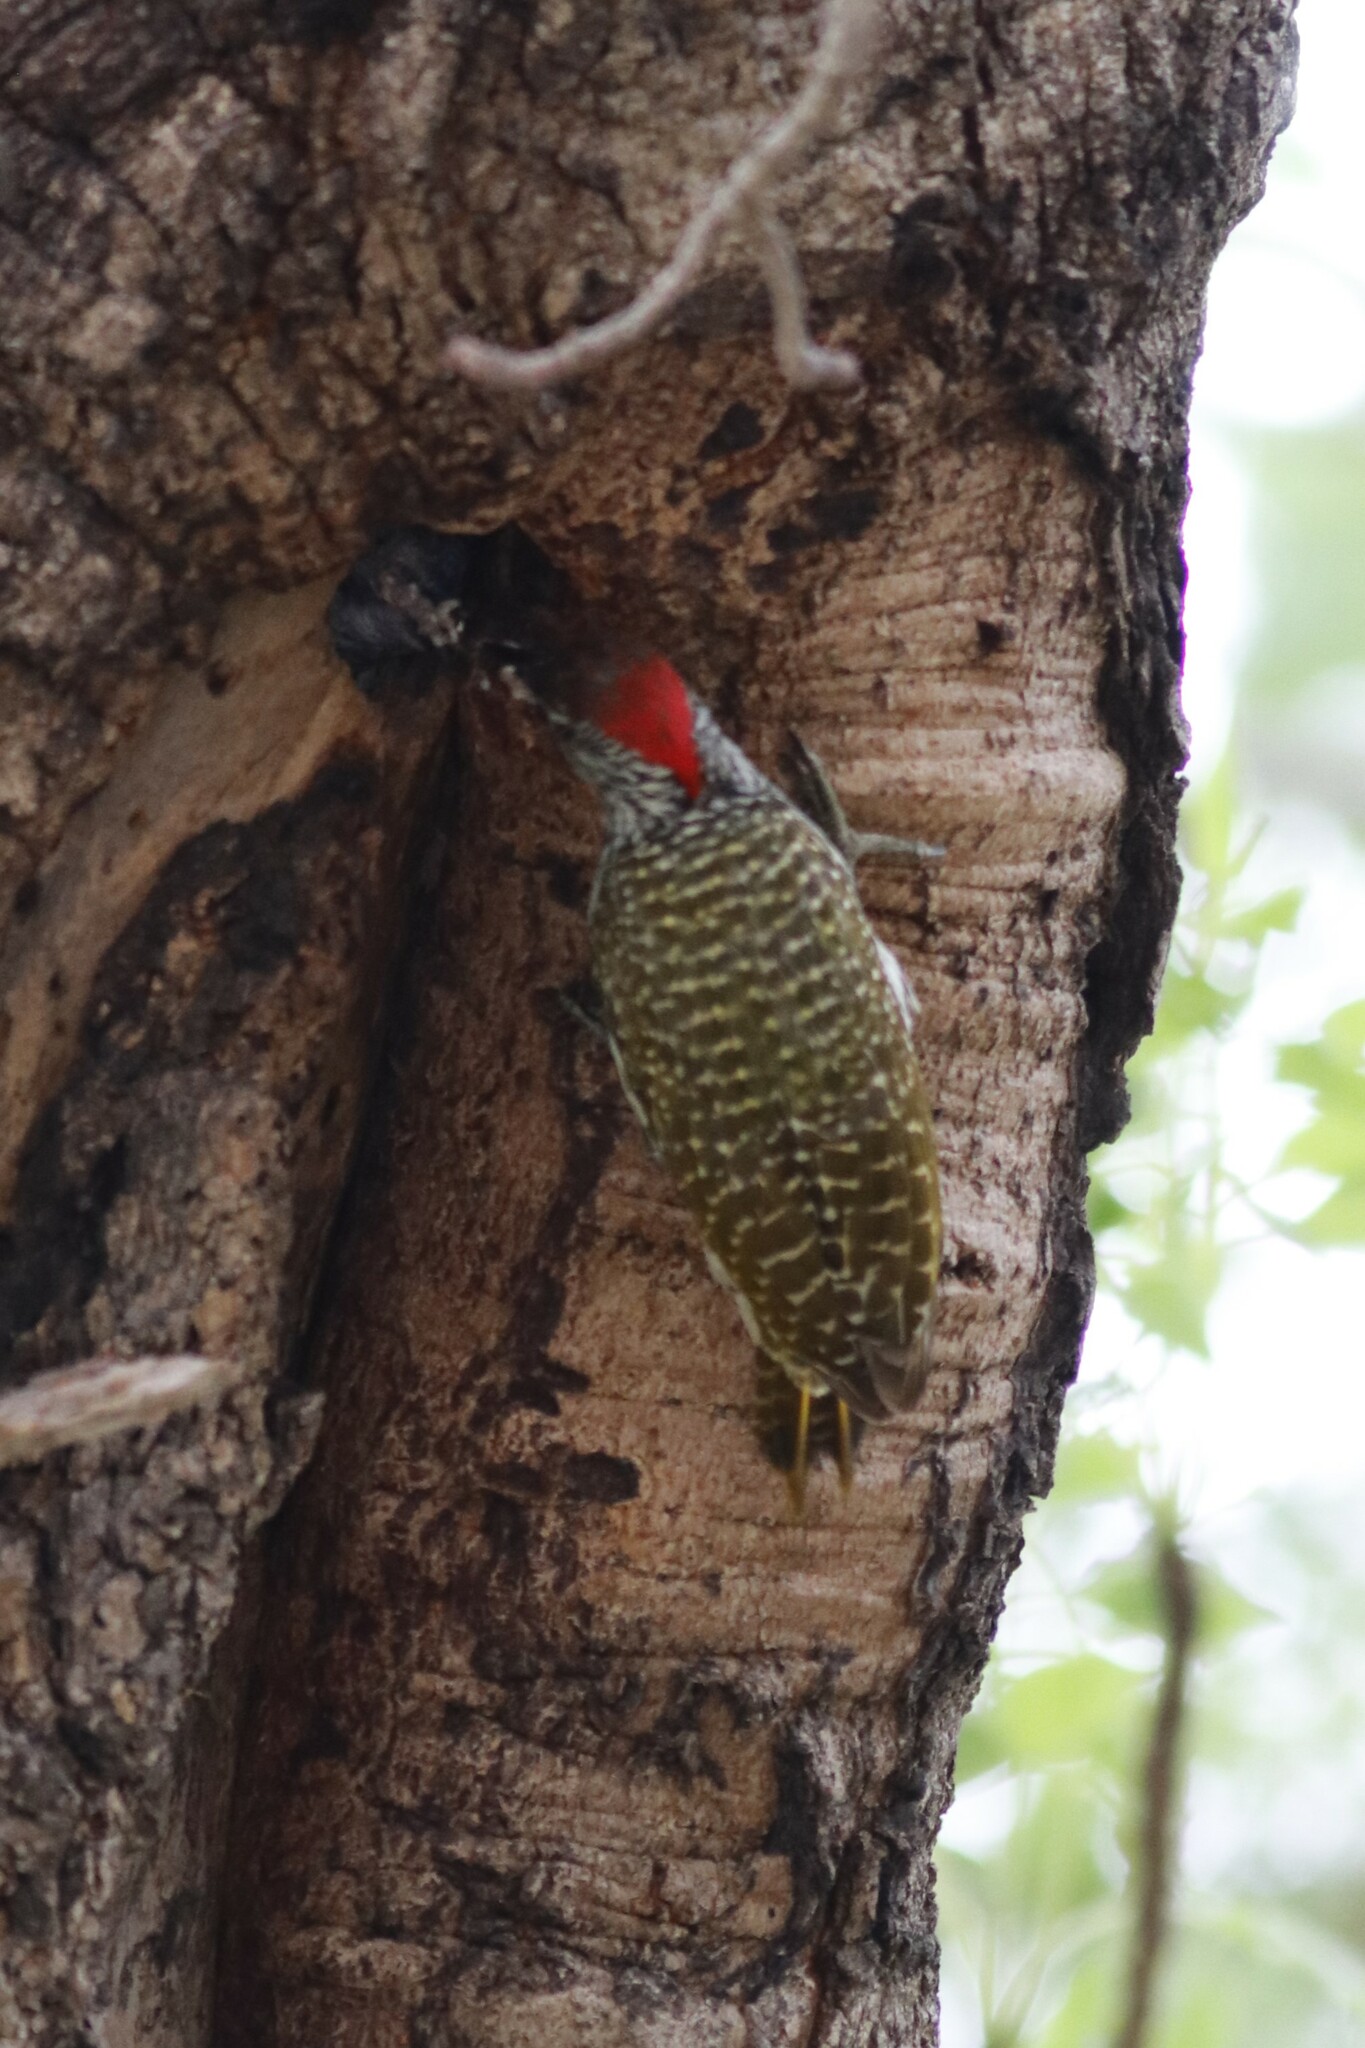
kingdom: Animalia
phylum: Chordata
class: Aves
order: Piciformes
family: Picidae
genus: Campethera
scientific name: Campethera abingoni
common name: Golden-tailed woodpecker
